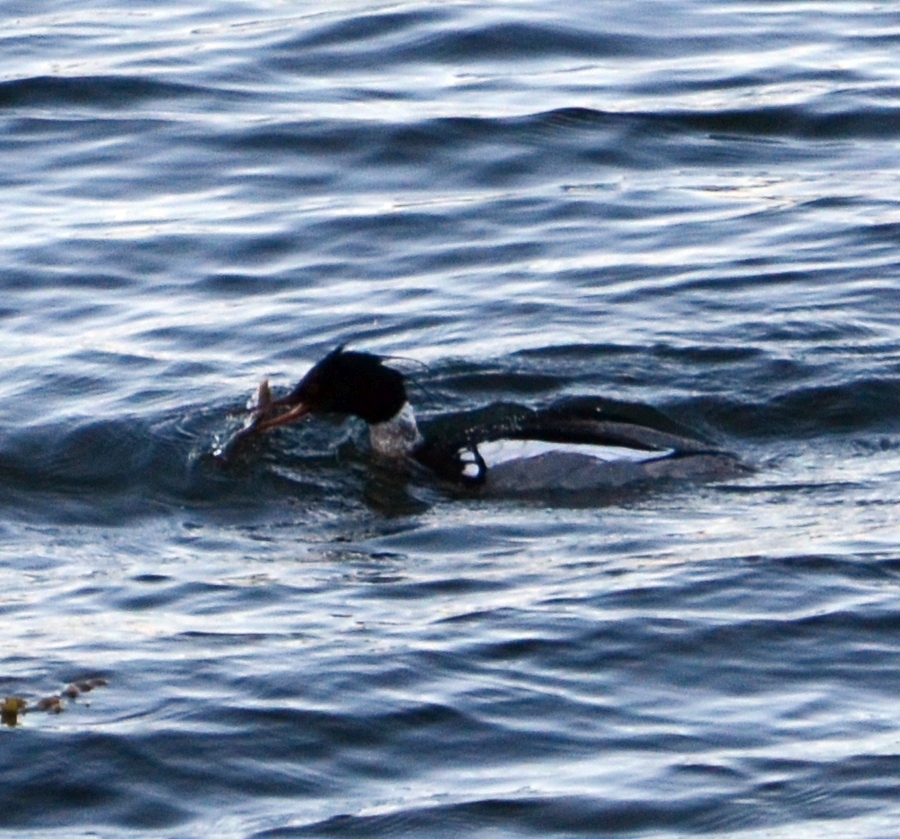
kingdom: Animalia
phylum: Chordata
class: Aves
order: Anseriformes
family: Anatidae
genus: Mergus
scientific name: Mergus serrator
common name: Red-breasted merganser
